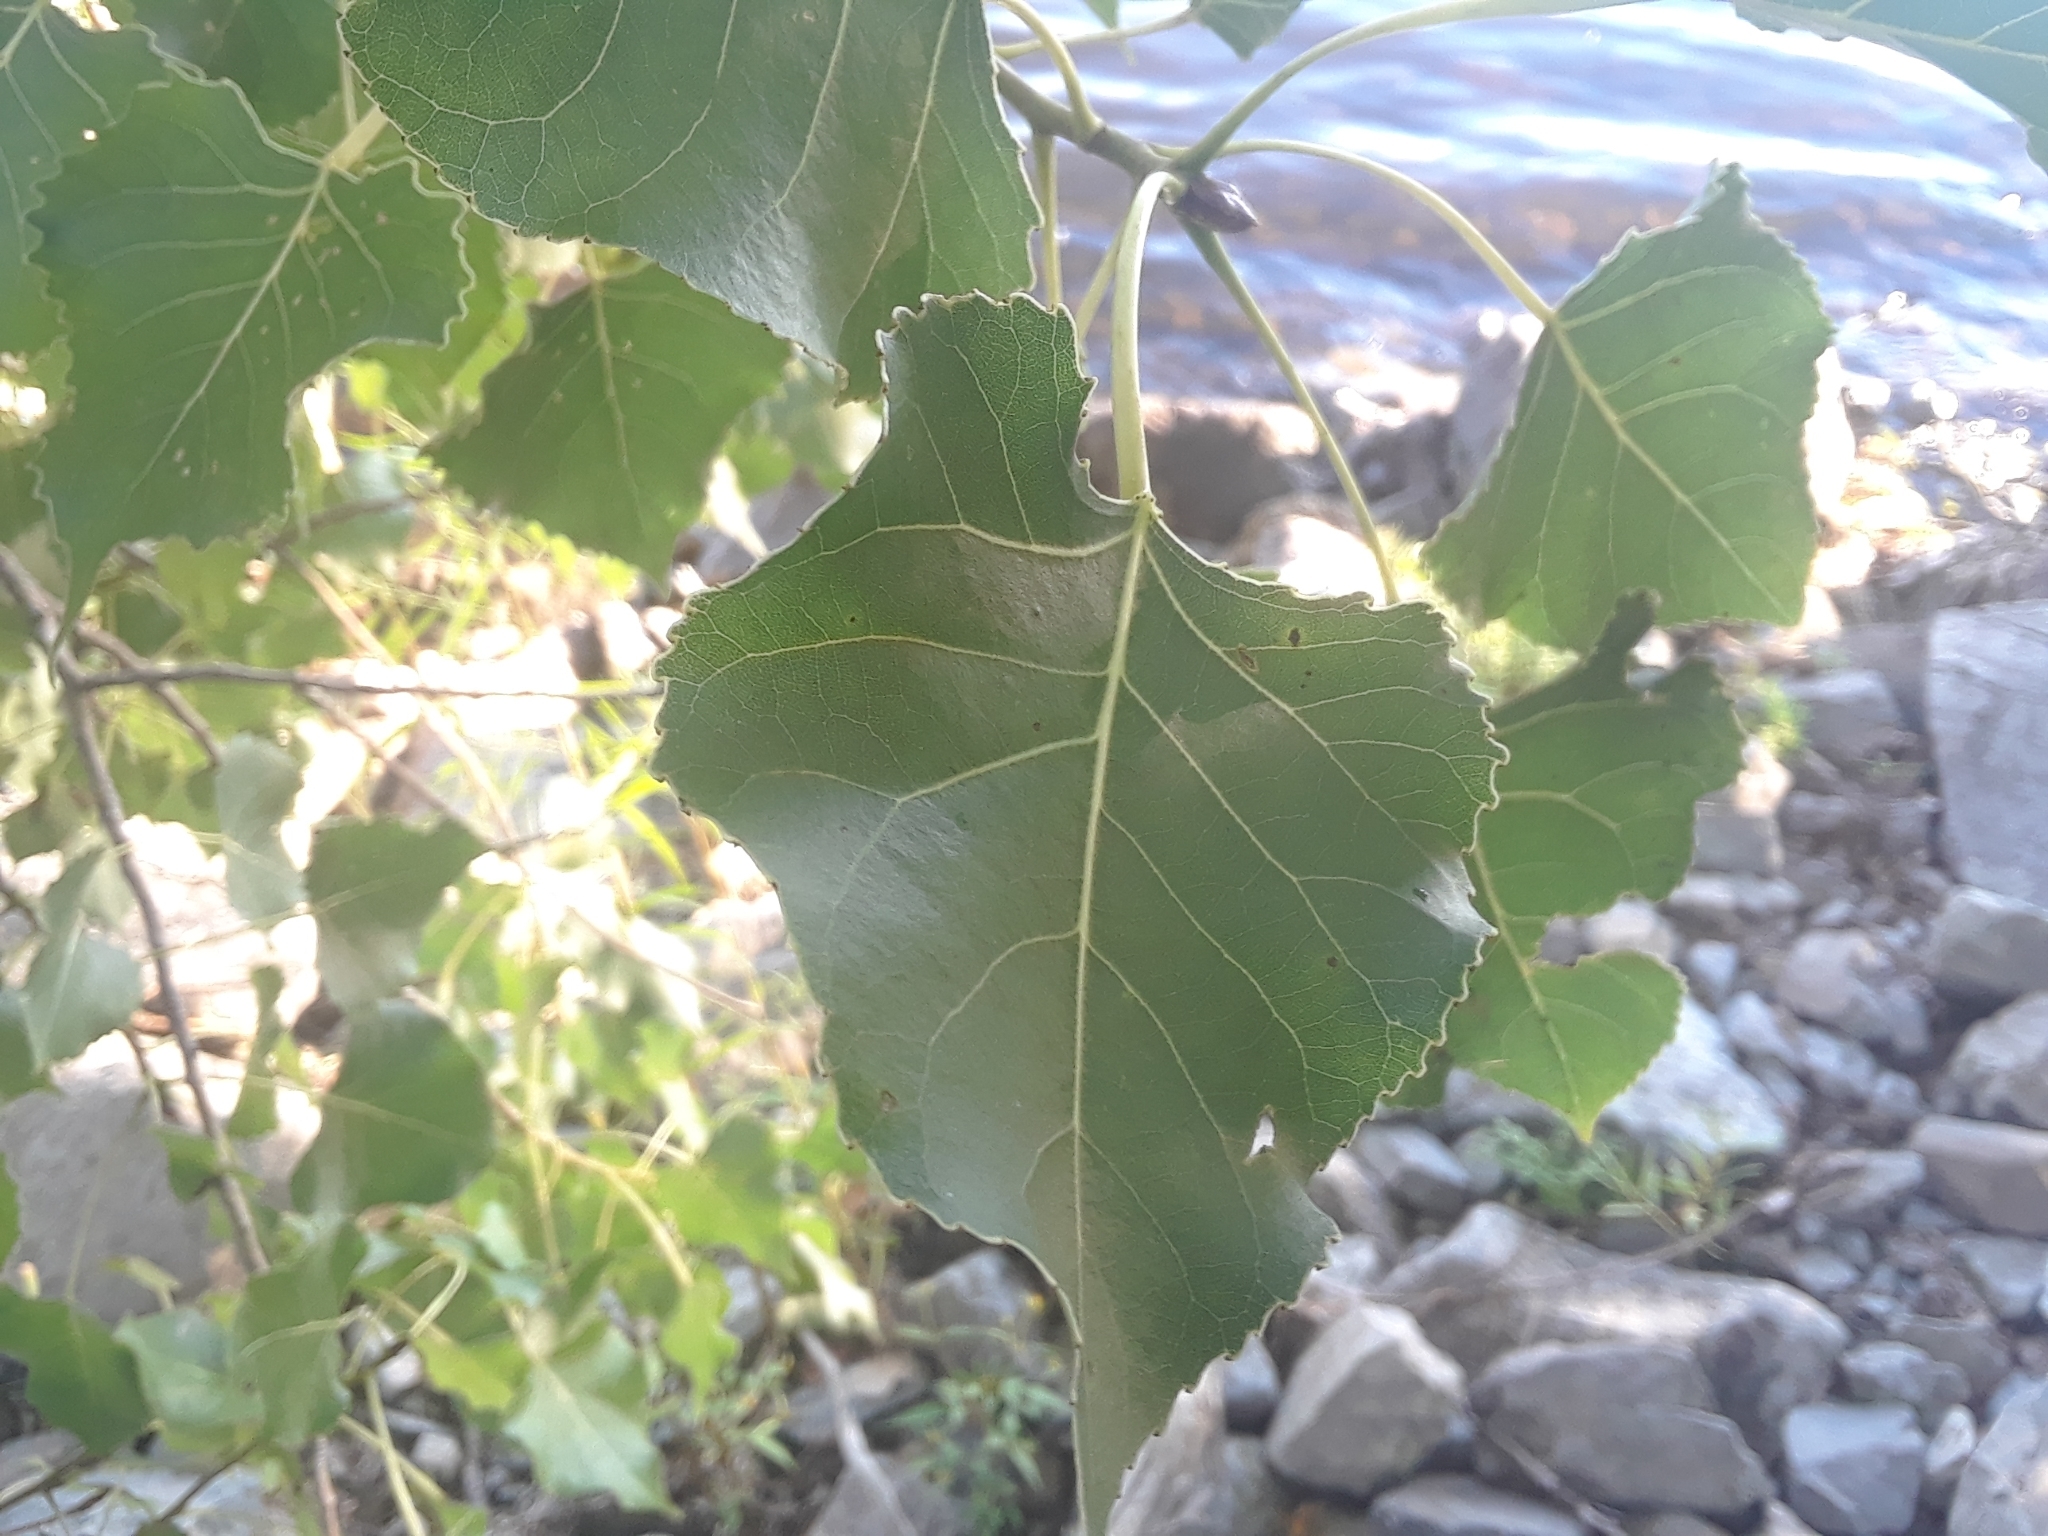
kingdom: Plantae
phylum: Tracheophyta
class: Magnoliopsida
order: Malpighiales
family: Salicaceae
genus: Populus
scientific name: Populus deltoides
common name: Eastern cottonwood
